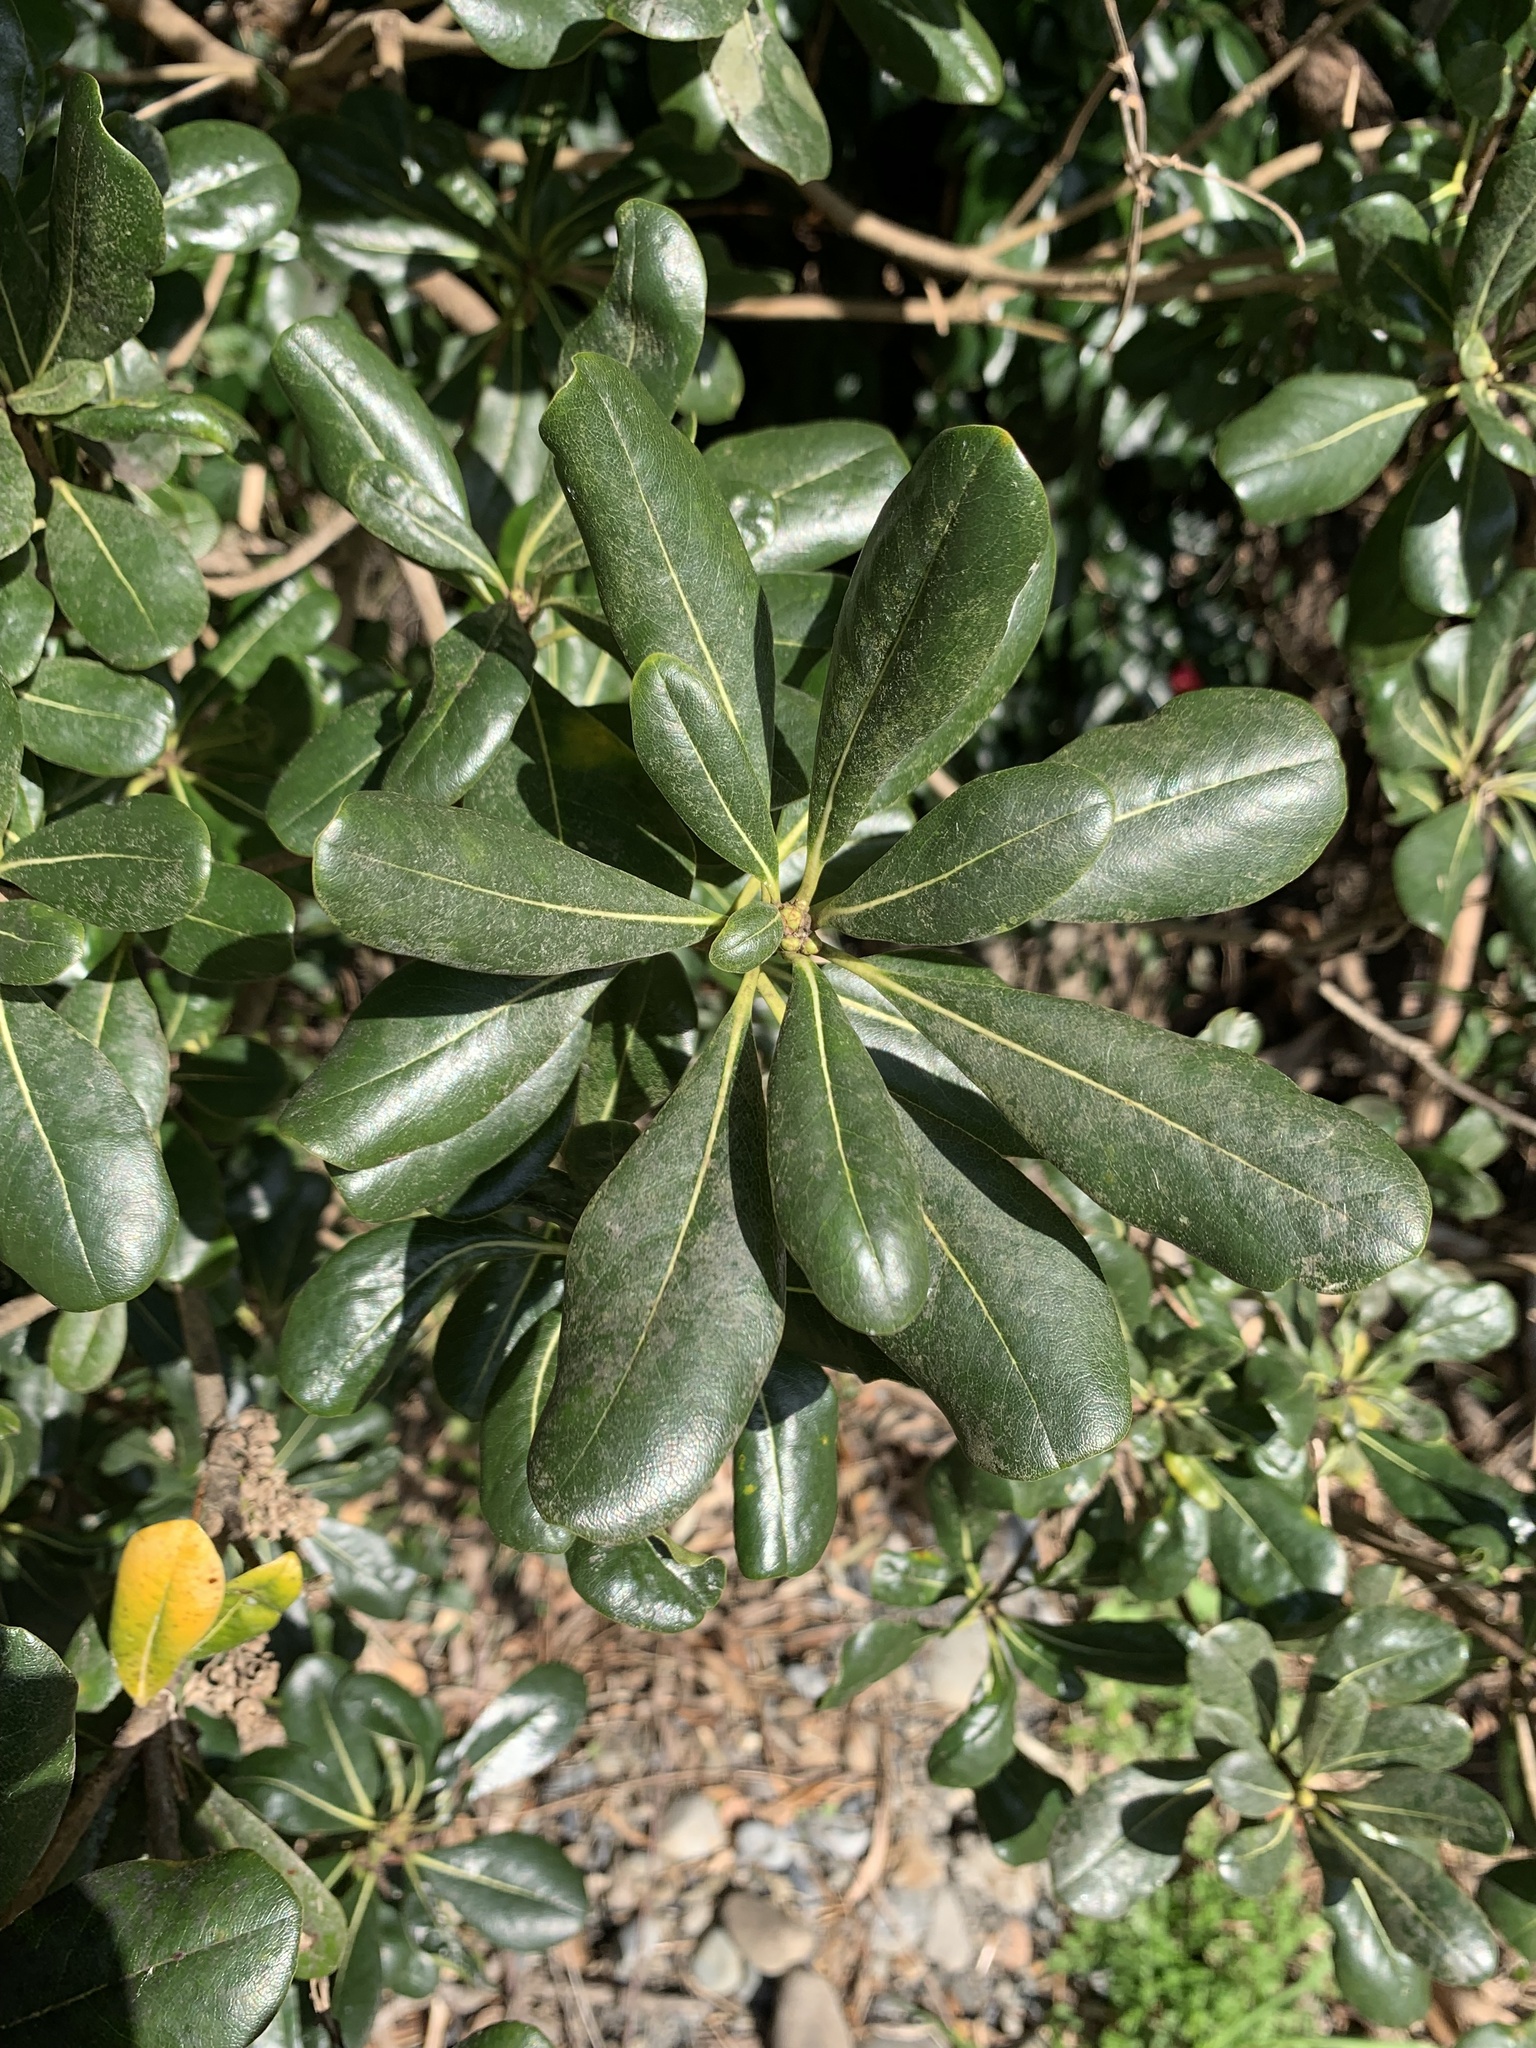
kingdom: Plantae
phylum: Tracheophyta
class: Magnoliopsida
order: Apiales
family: Pittosporaceae
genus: Pittosporum
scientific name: Pittosporum tobira
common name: Japanese cheesewood
